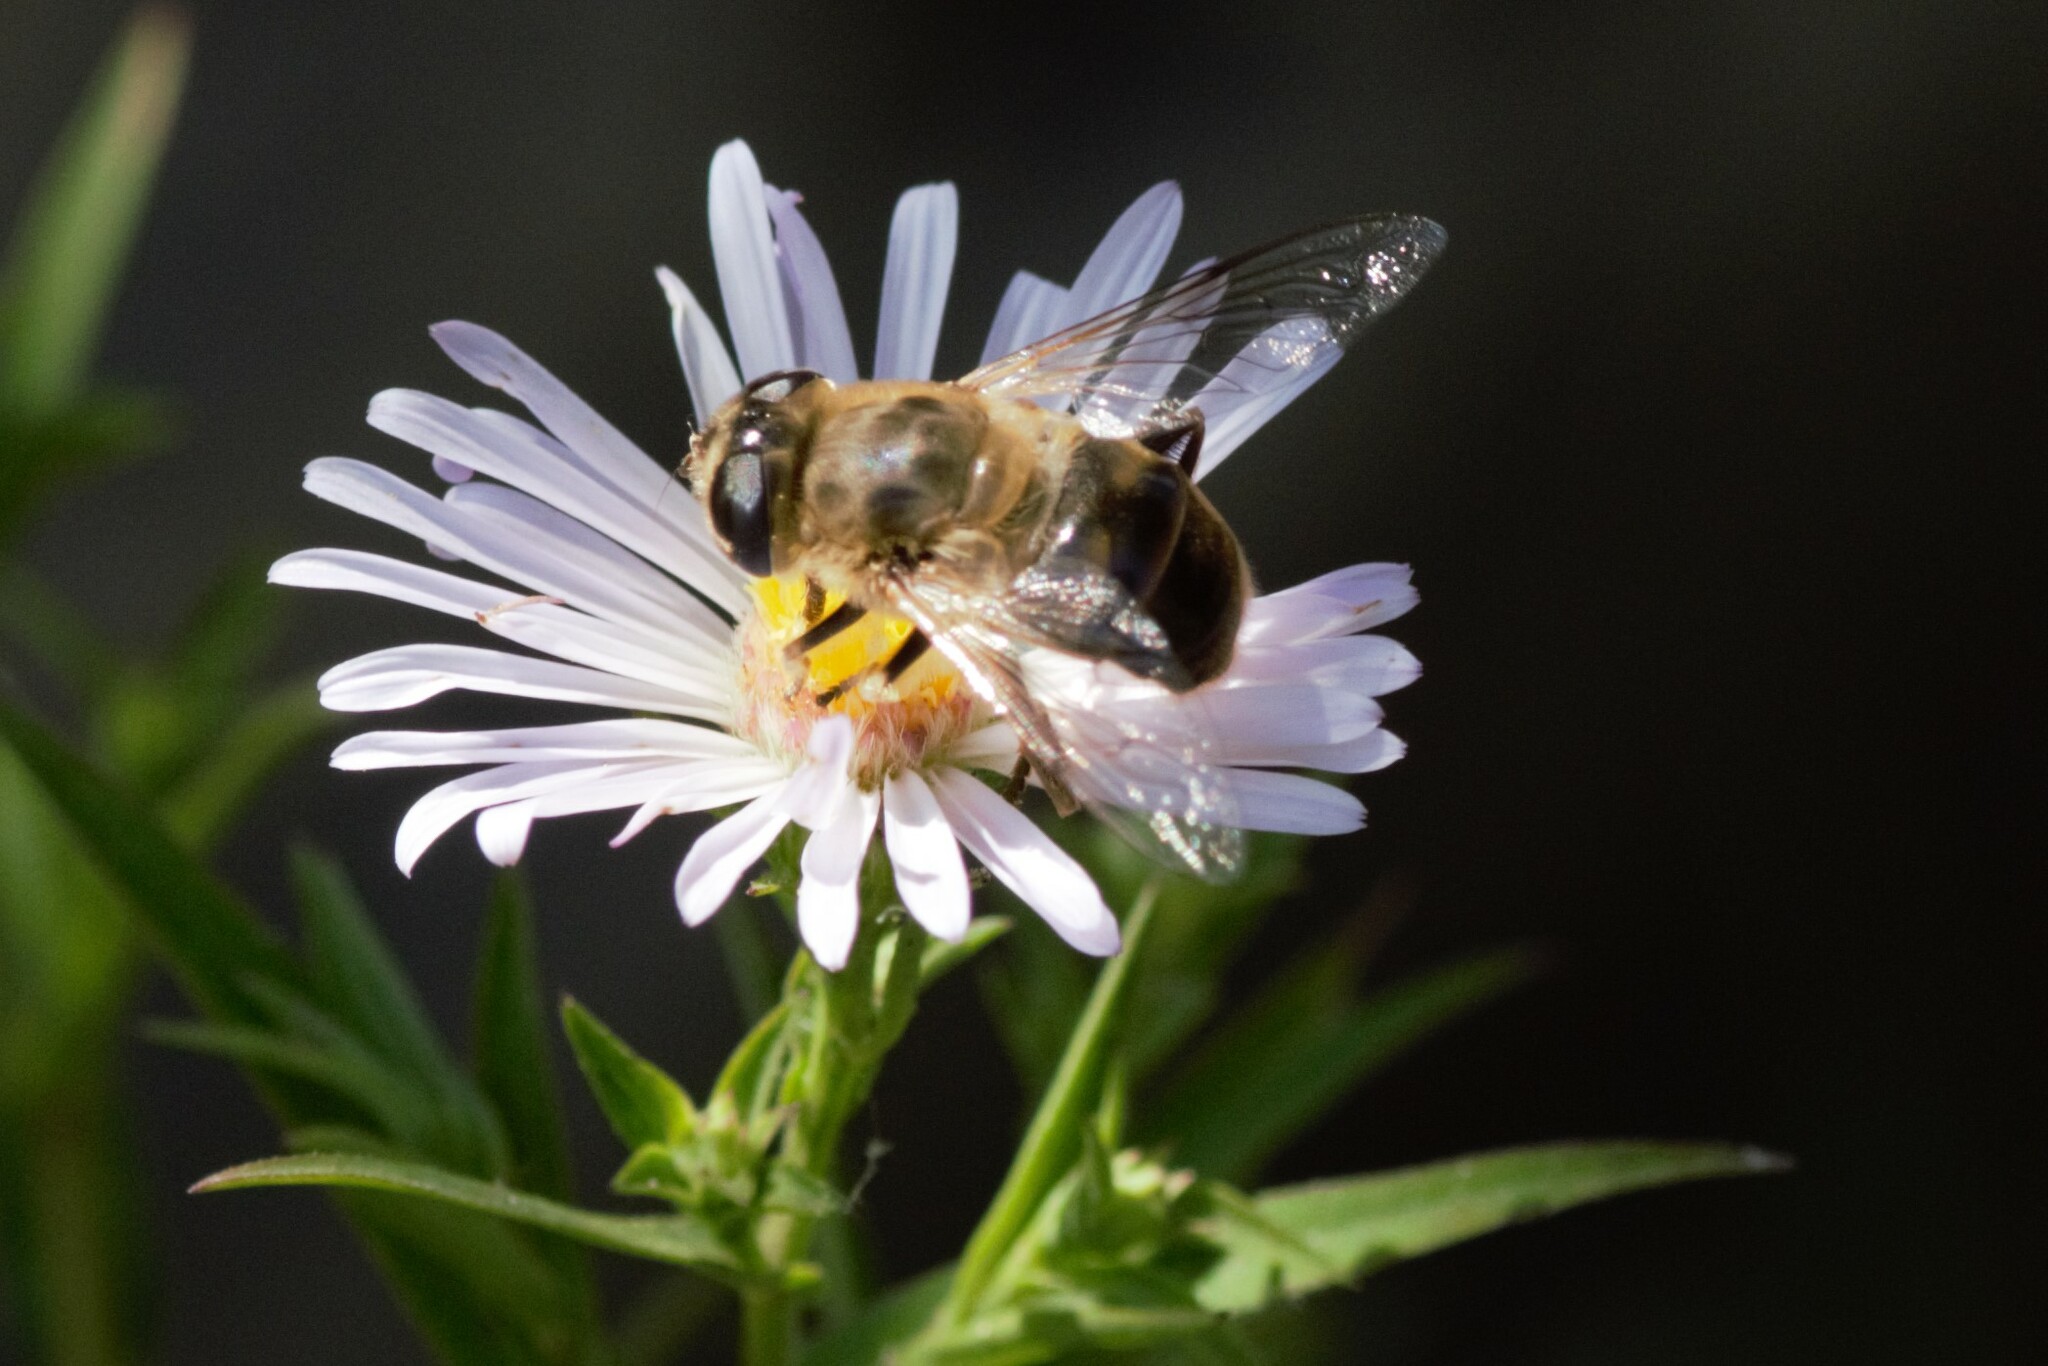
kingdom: Animalia
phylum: Arthropoda
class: Insecta
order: Diptera
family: Syrphidae
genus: Eristalis
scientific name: Eristalis tenax
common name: Drone fly
